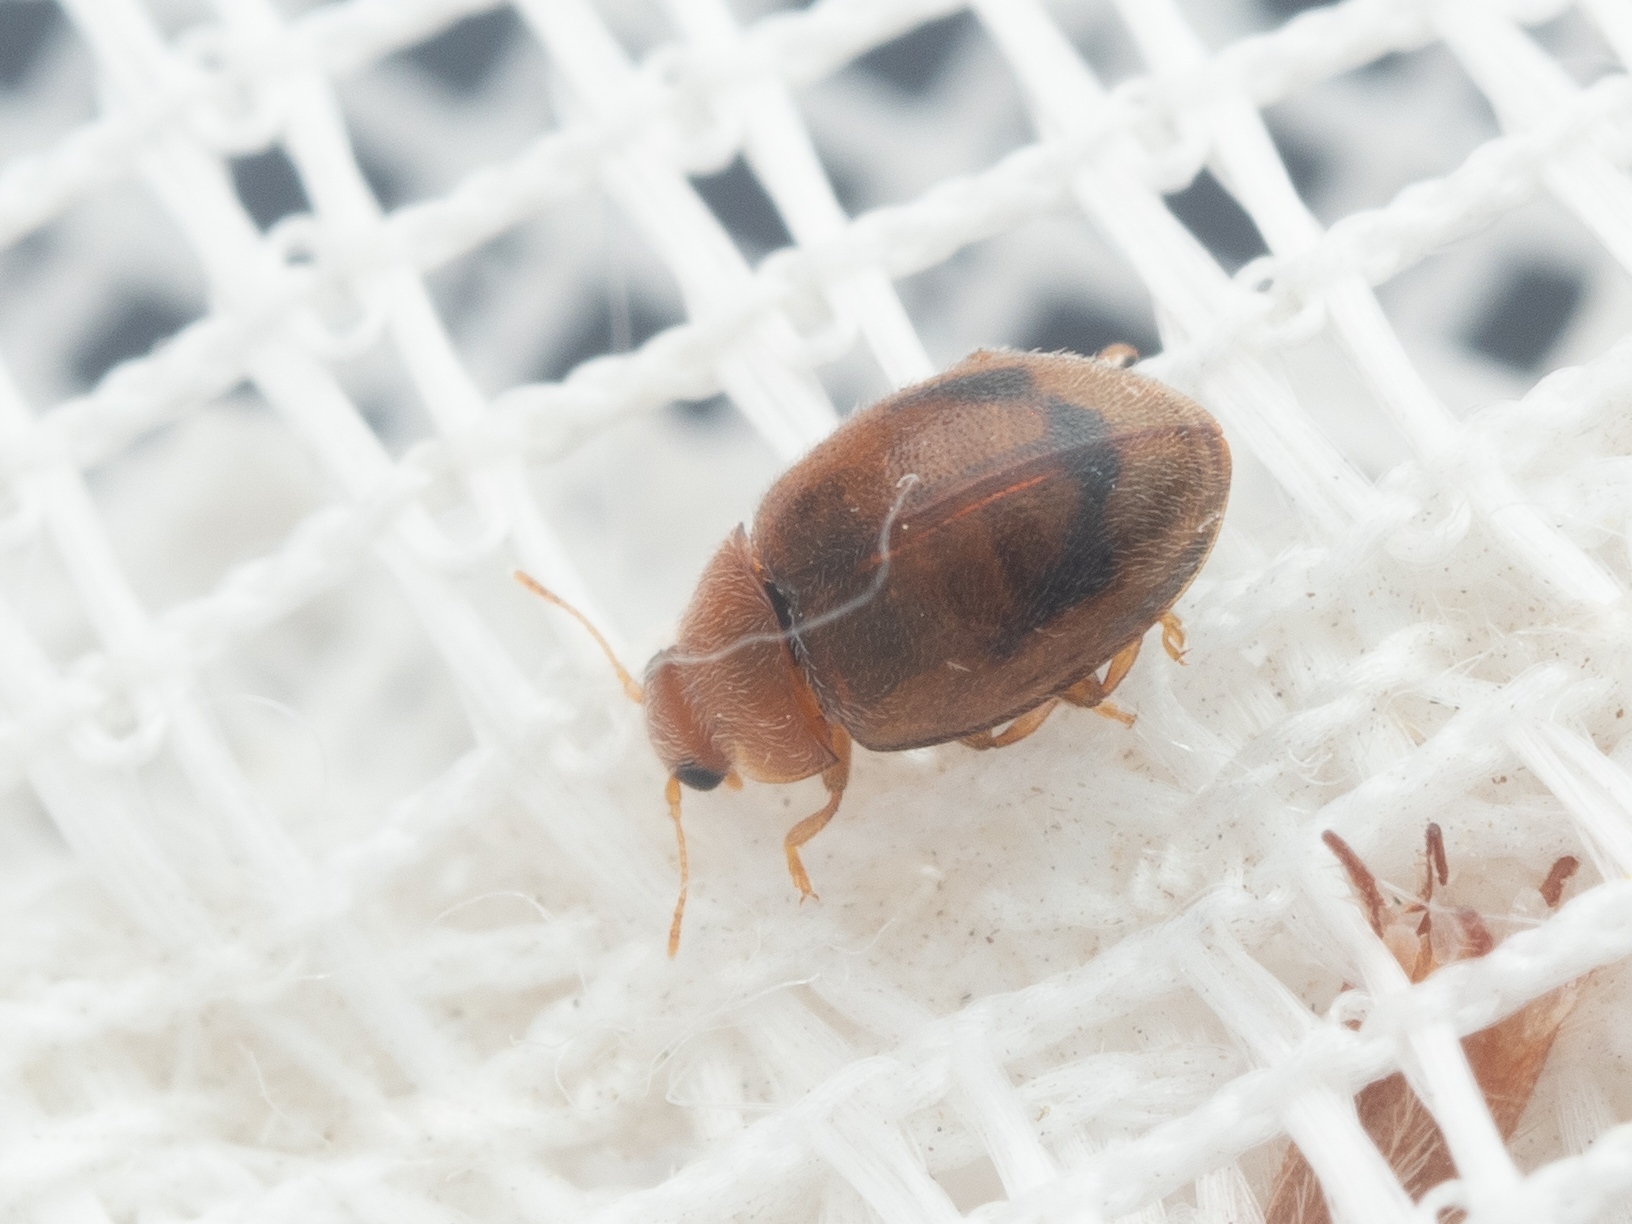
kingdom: Animalia
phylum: Arthropoda
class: Insecta
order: Coleoptera
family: Coccinellidae
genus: Rhyzobius
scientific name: Rhyzobius litura
